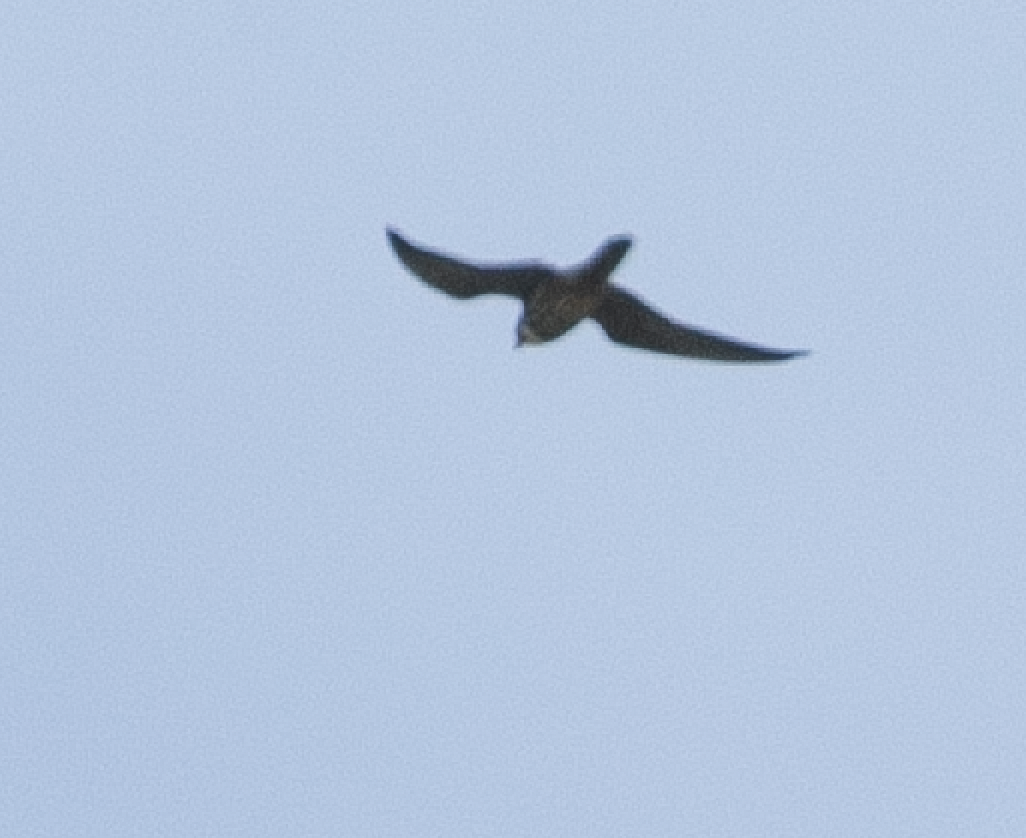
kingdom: Animalia
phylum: Chordata
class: Aves
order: Falconiformes
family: Falconidae
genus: Falco
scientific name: Falco subbuteo
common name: Eurasian hobby
